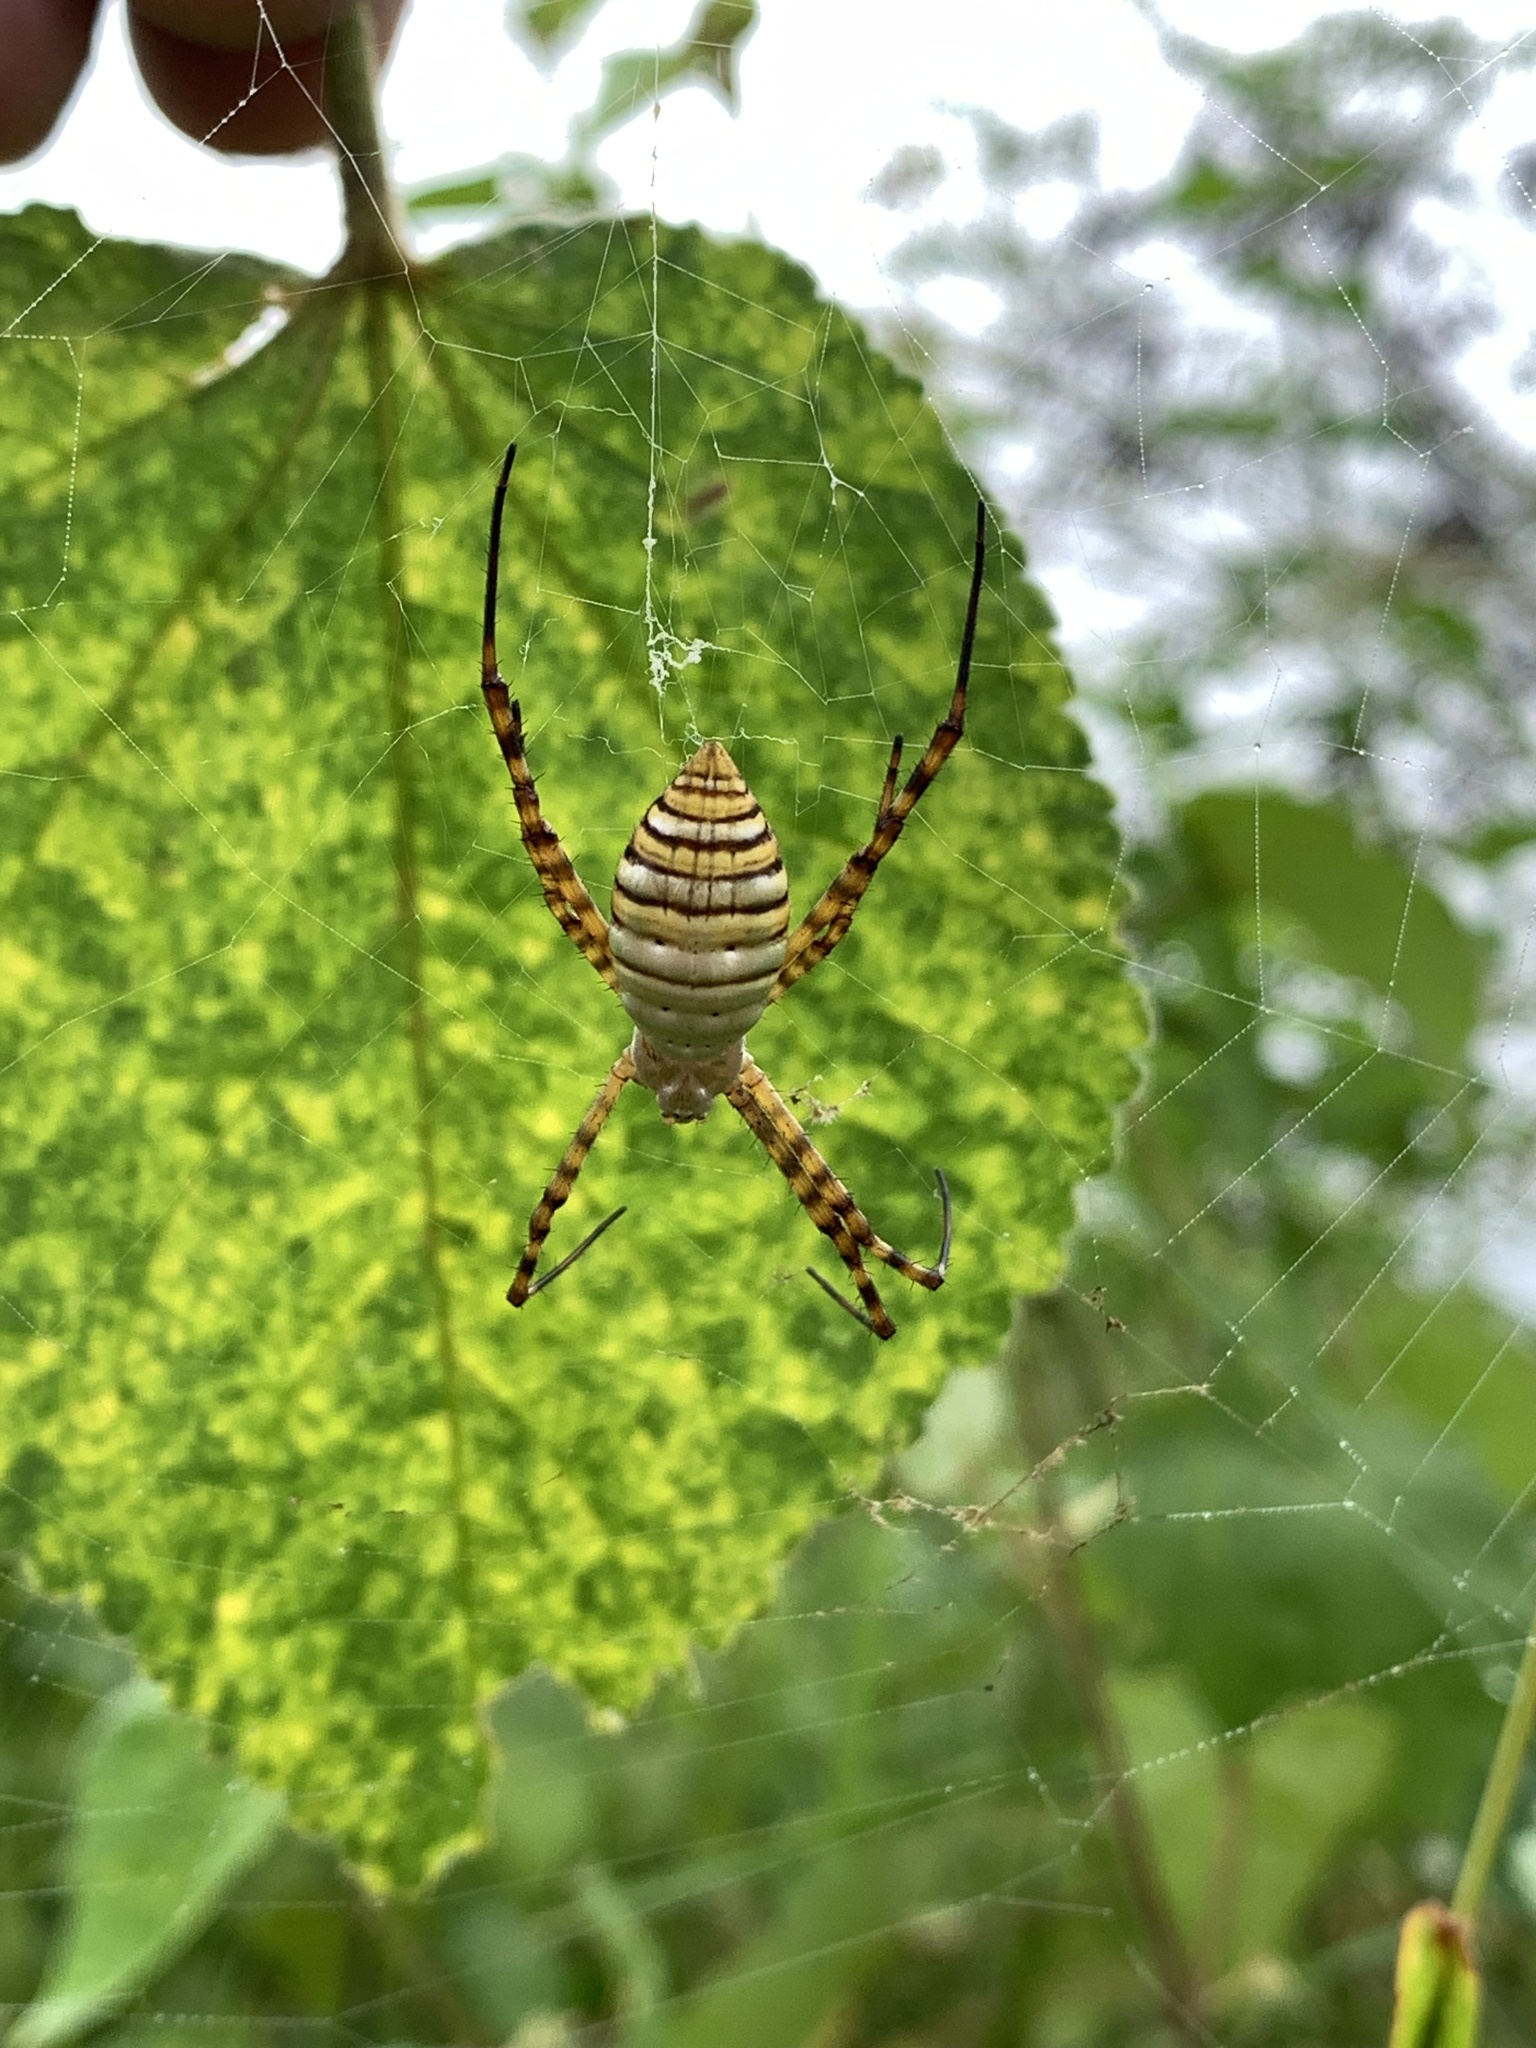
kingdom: Animalia
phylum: Arthropoda
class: Arachnida
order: Araneae
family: Araneidae
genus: Argiope
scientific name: Argiope trifasciata
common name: Banded garden spider
